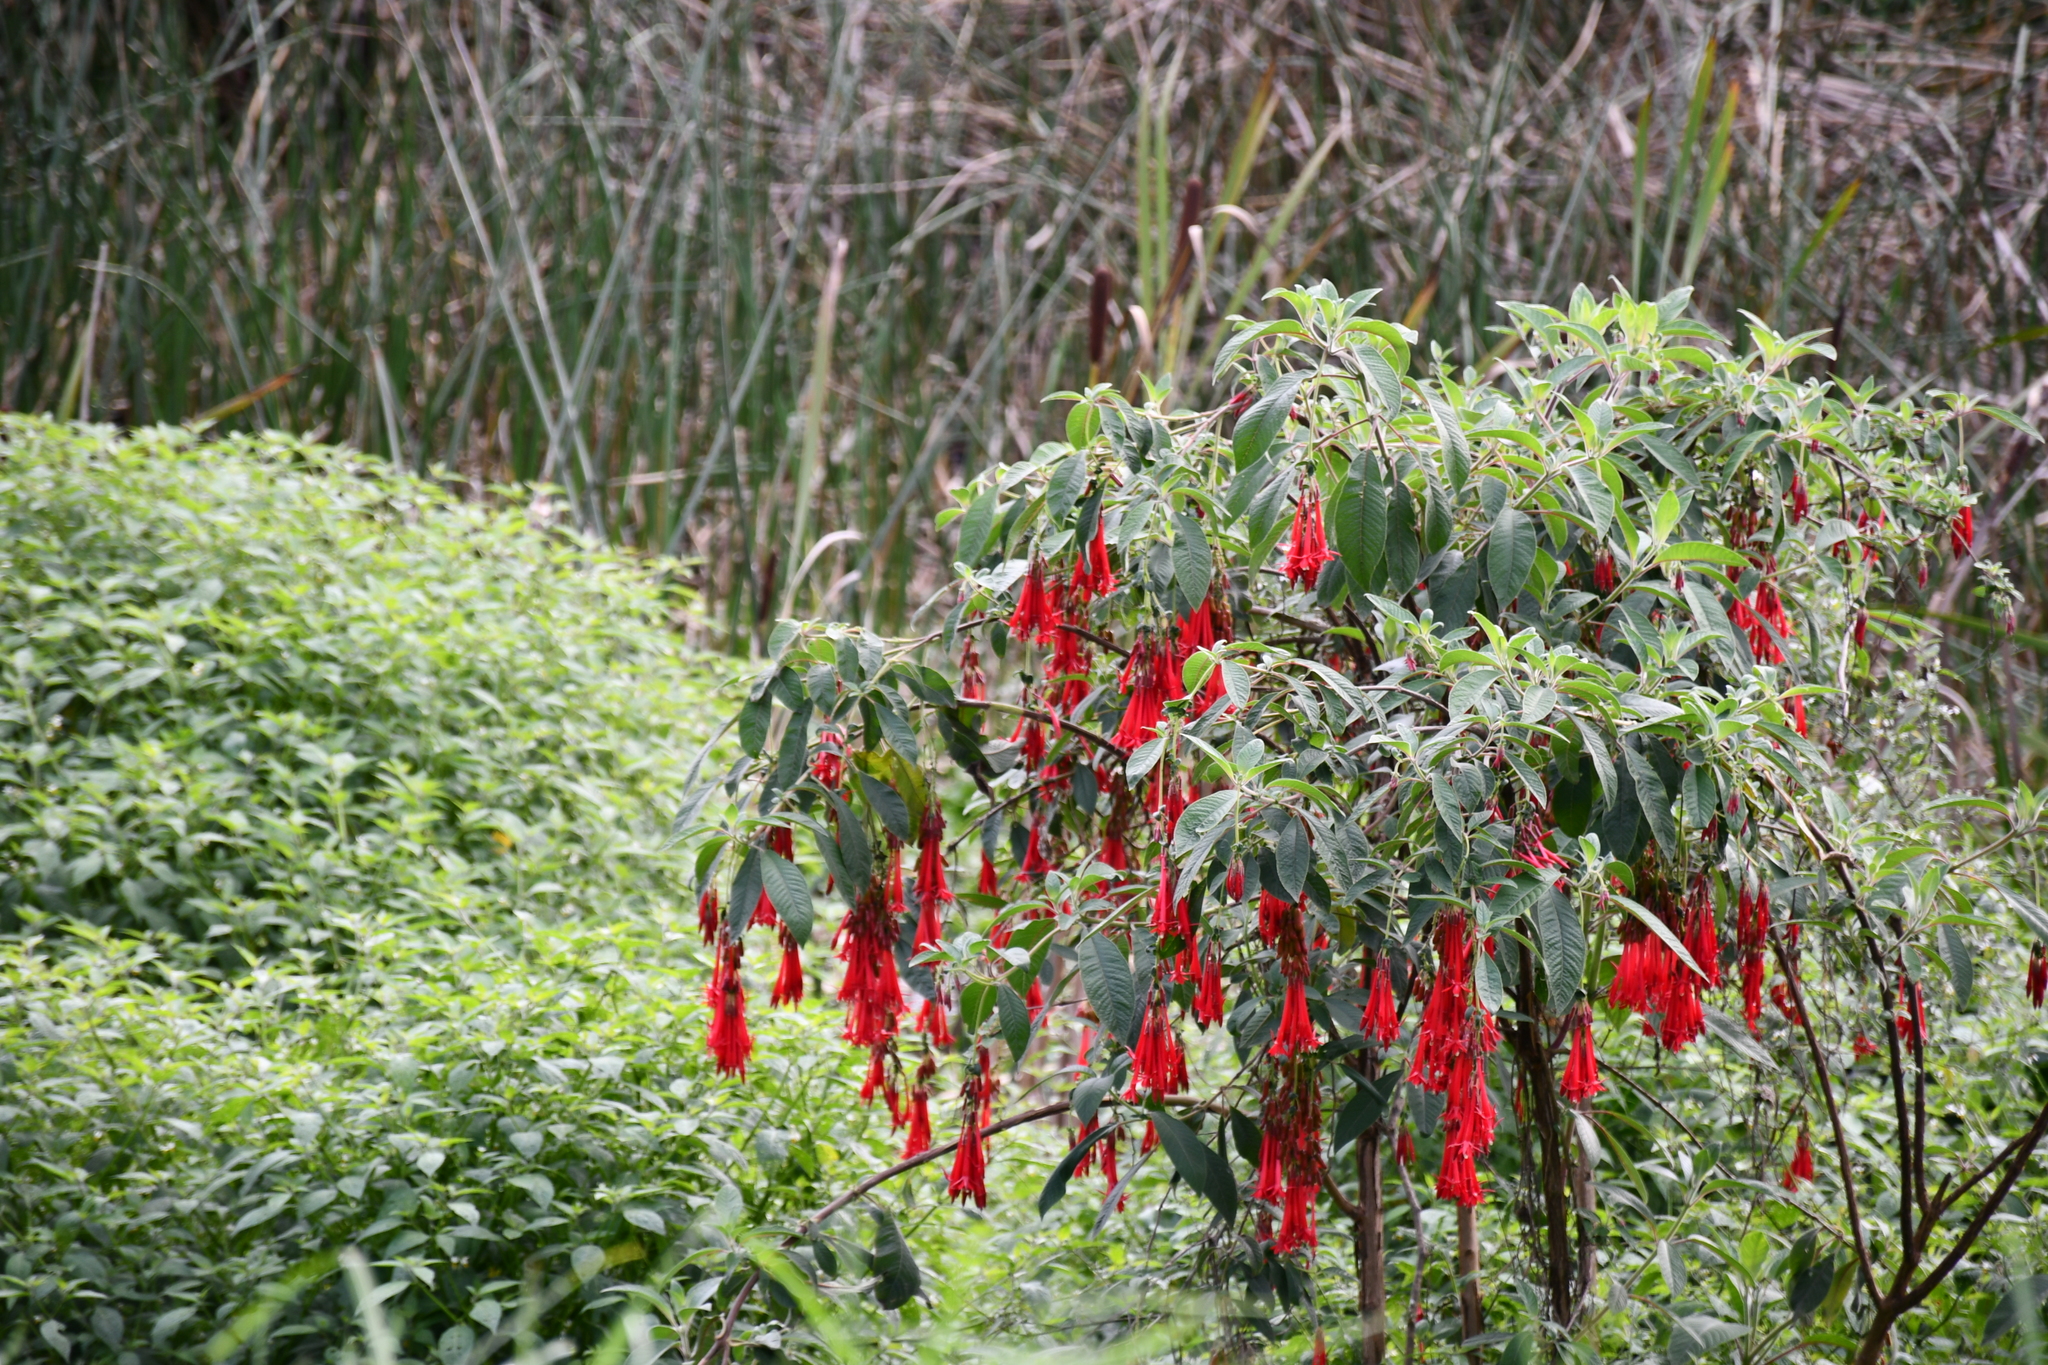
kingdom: Plantae
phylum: Tracheophyta
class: Magnoliopsida
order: Myrtales
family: Onagraceae
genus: Fuchsia
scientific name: Fuchsia boliviana
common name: Bolivian fuchsia
